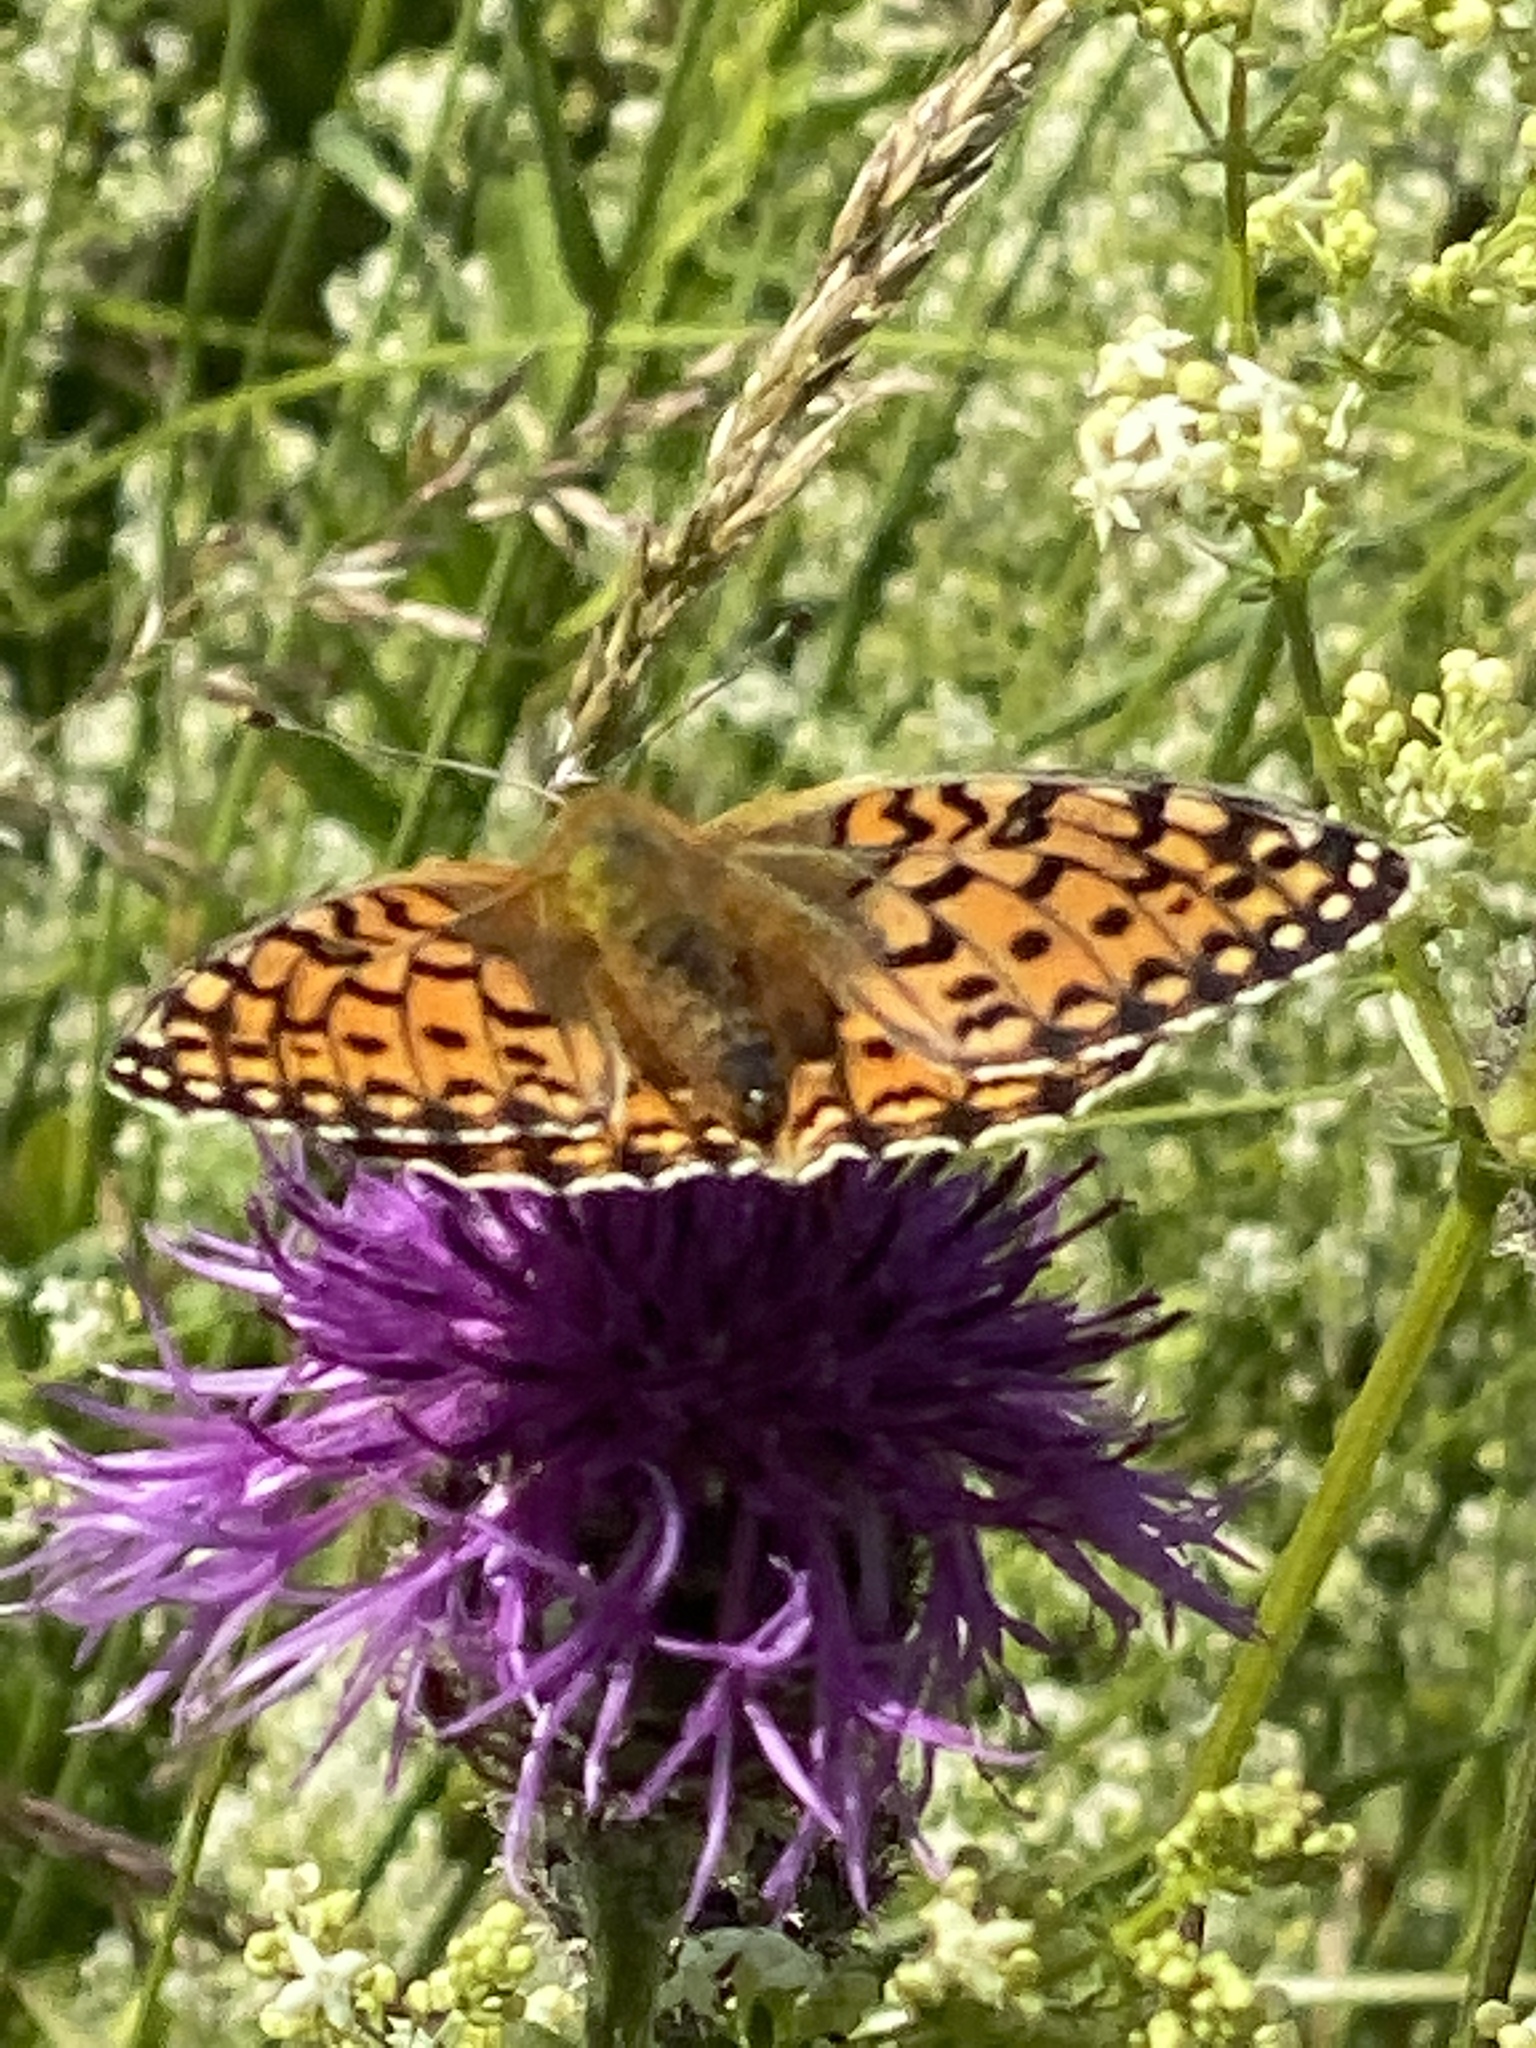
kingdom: Animalia
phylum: Arthropoda
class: Insecta
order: Lepidoptera
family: Nymphalidae
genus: Speyeria
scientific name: Speyeria aglaja
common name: Dark green fritillary
